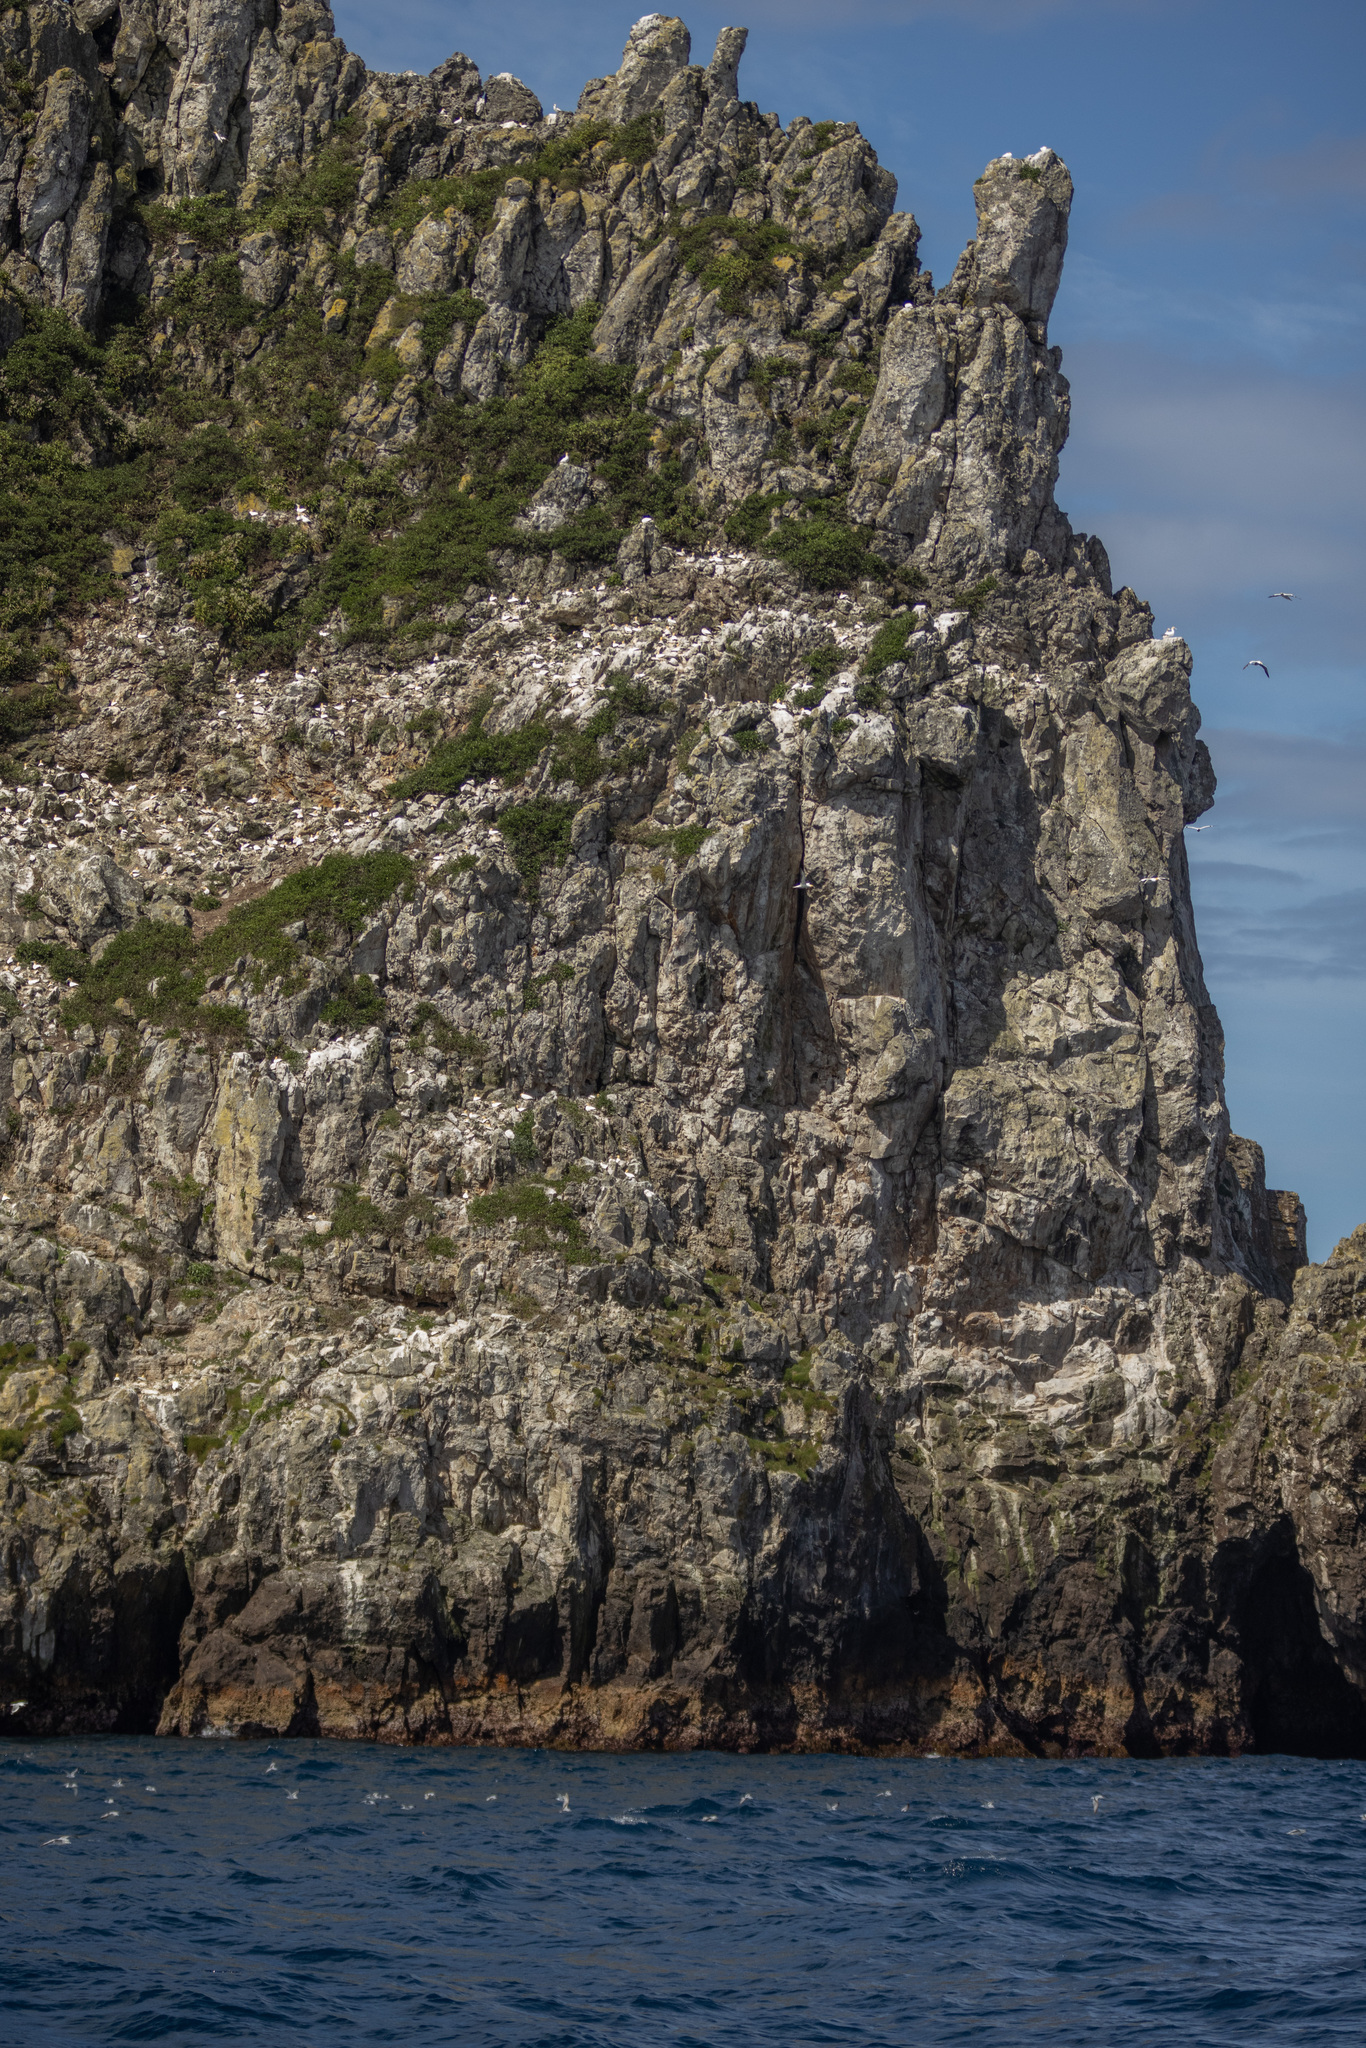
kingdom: Animalia
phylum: Chordata
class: Aves
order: Suliformes
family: Sulidae
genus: Morus
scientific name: Morus serrator
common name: Australasian gannet
